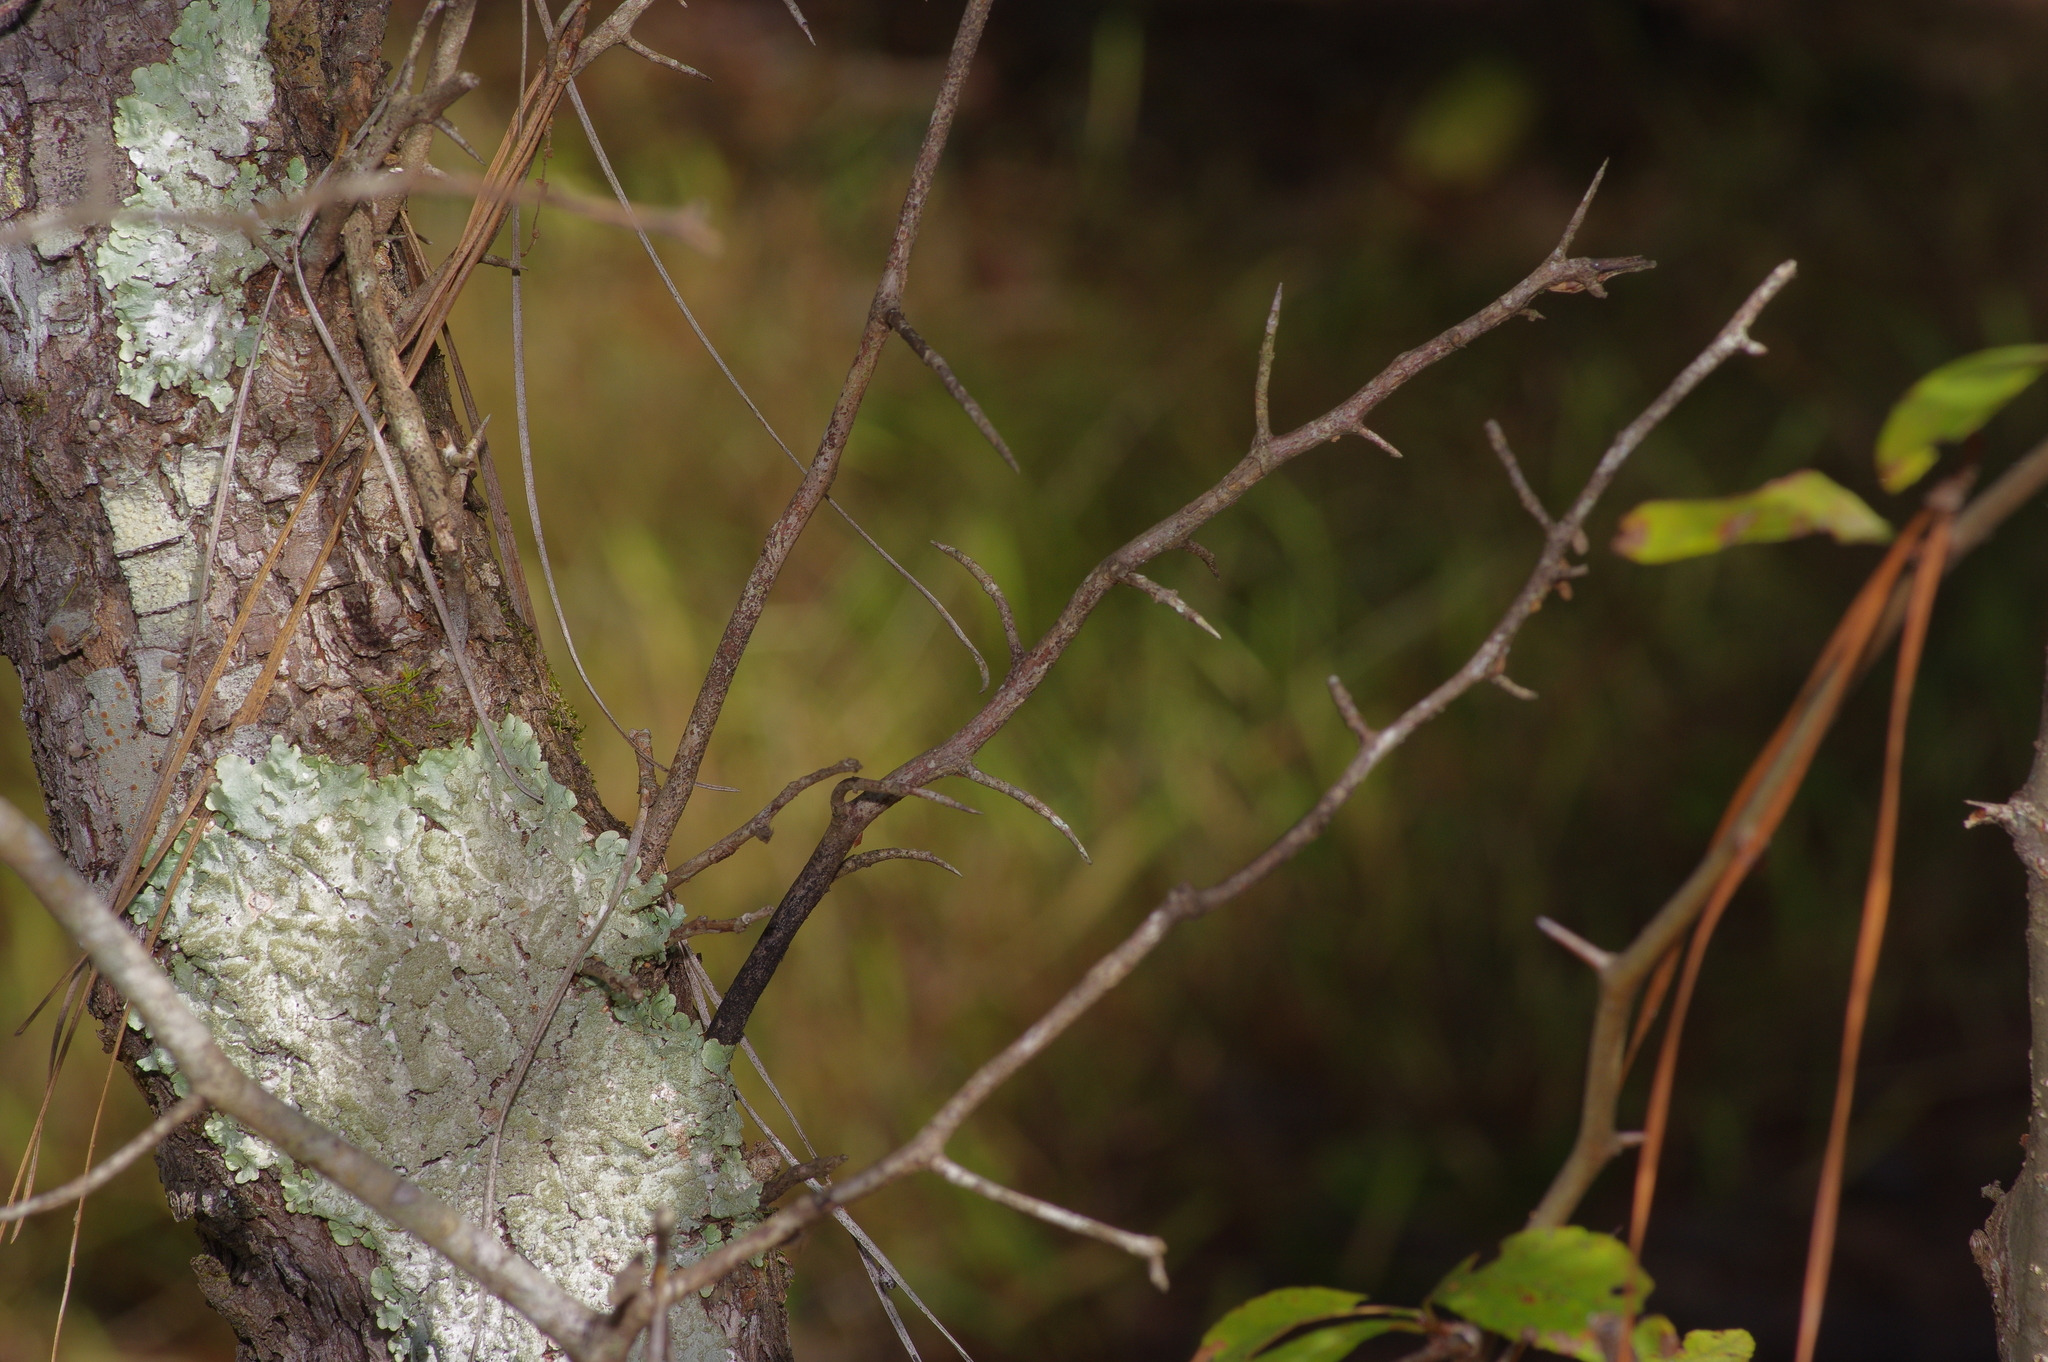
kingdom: Plantae
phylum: Tracheophyta
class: Magnoliopsida
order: Ericales
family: Sapotaceae
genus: Sideroxylon
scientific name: Sideroxylon lanuginosum
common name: Chittamwood
